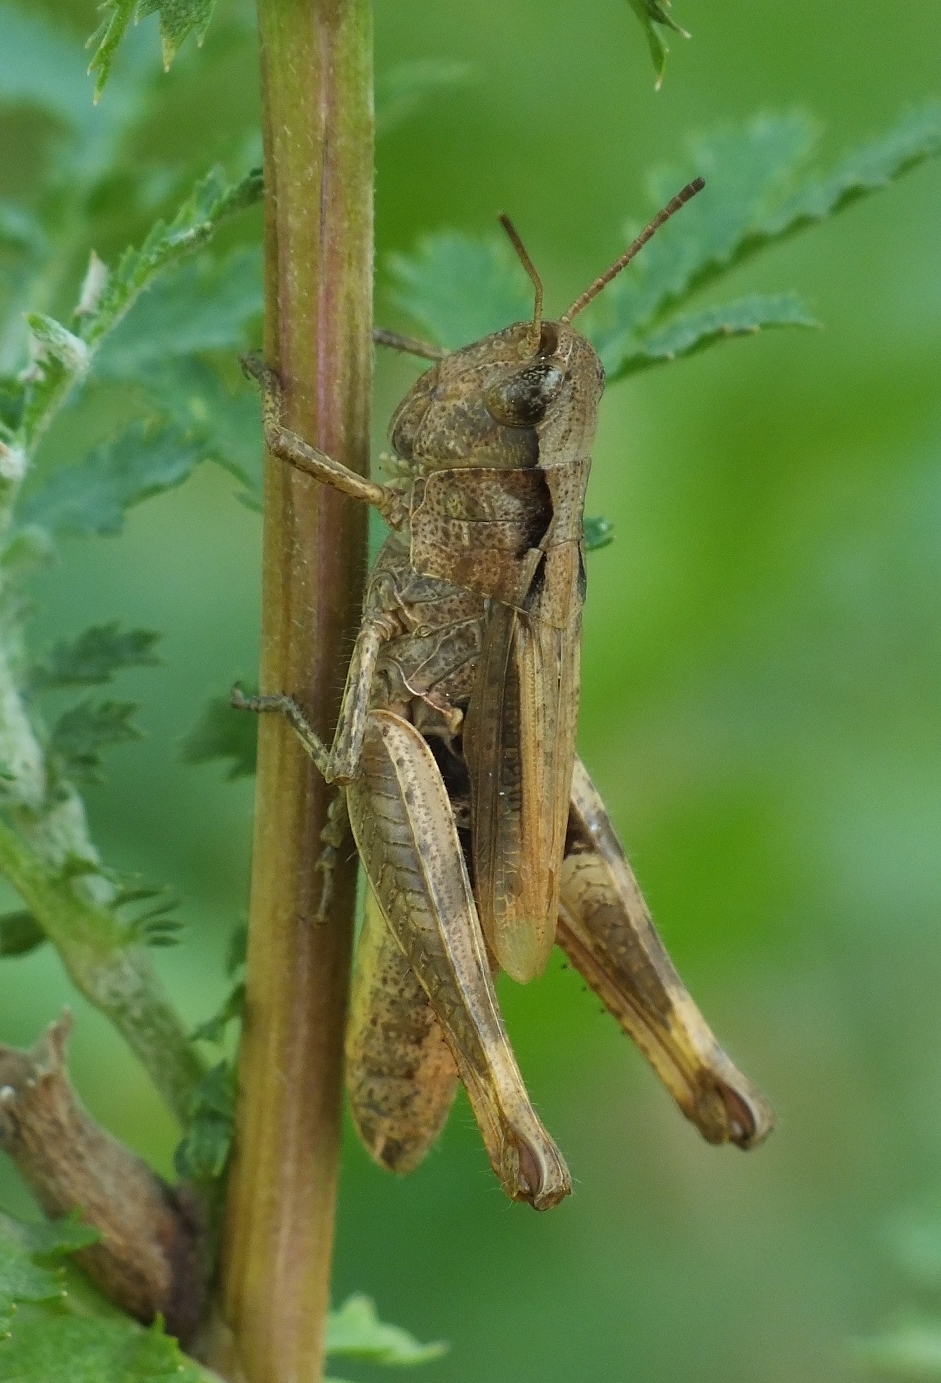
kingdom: Animalia
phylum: Arthropoda
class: Insecta
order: Orthoptera
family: Acrididae
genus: Chorthippus
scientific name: Chorthippus macrocerus
